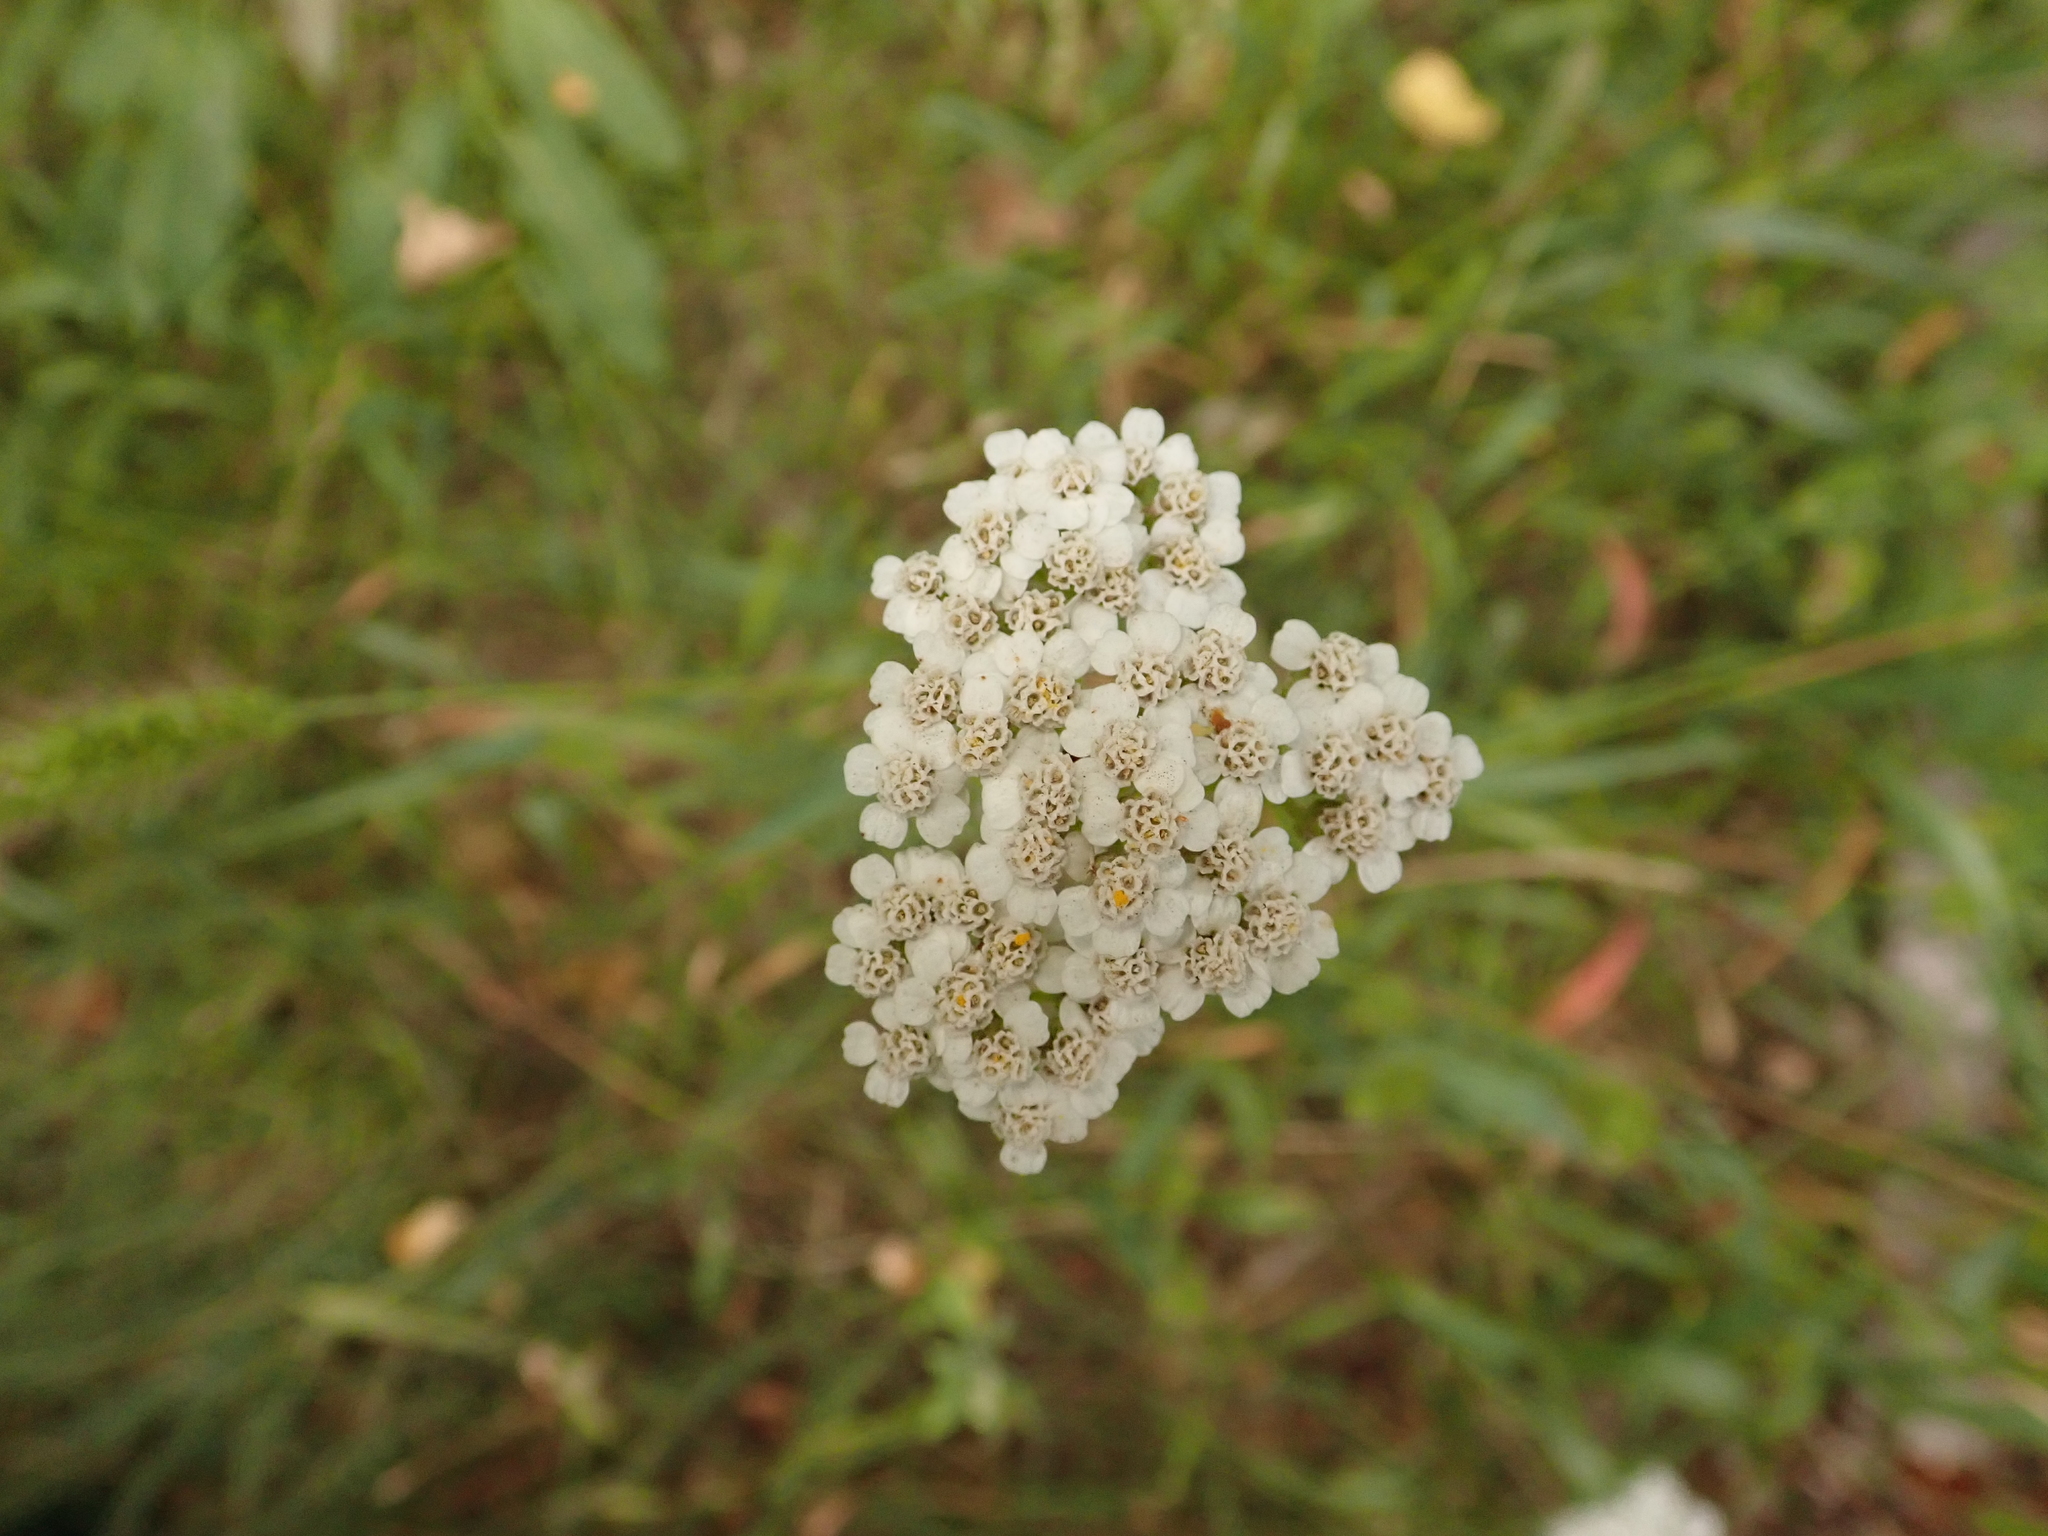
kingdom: Plantae
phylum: Tracheophyta
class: Magnoliopsida
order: Asterales
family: Asteraceae
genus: Achillea
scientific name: Achillea millefolium
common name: Yarrow
